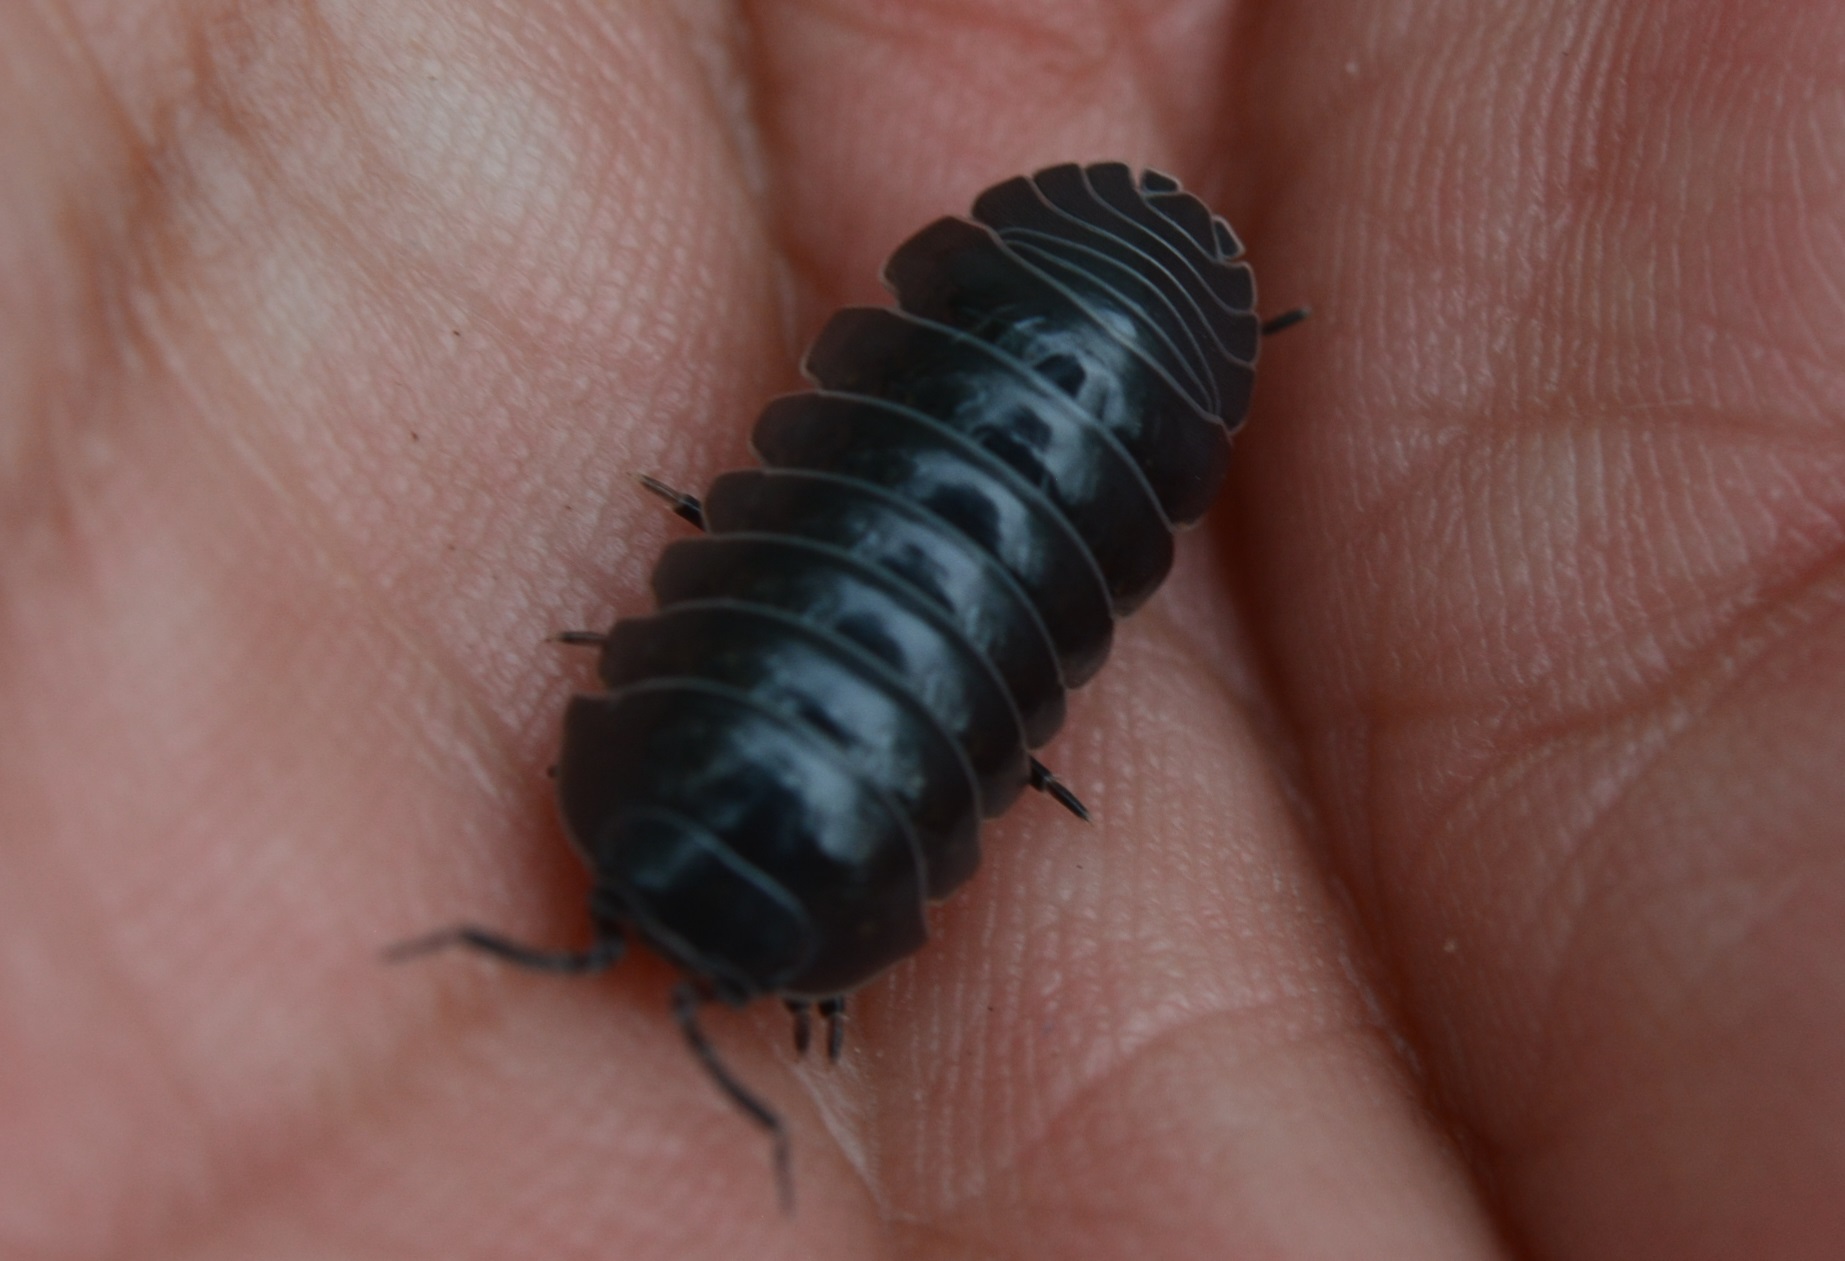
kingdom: Animalia
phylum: Arthropoda
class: Malacostraca
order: Isopoda
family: Armadillidiidae
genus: Armadillidium
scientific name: Armadillidium vulgare
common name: Common pill woodlouse
